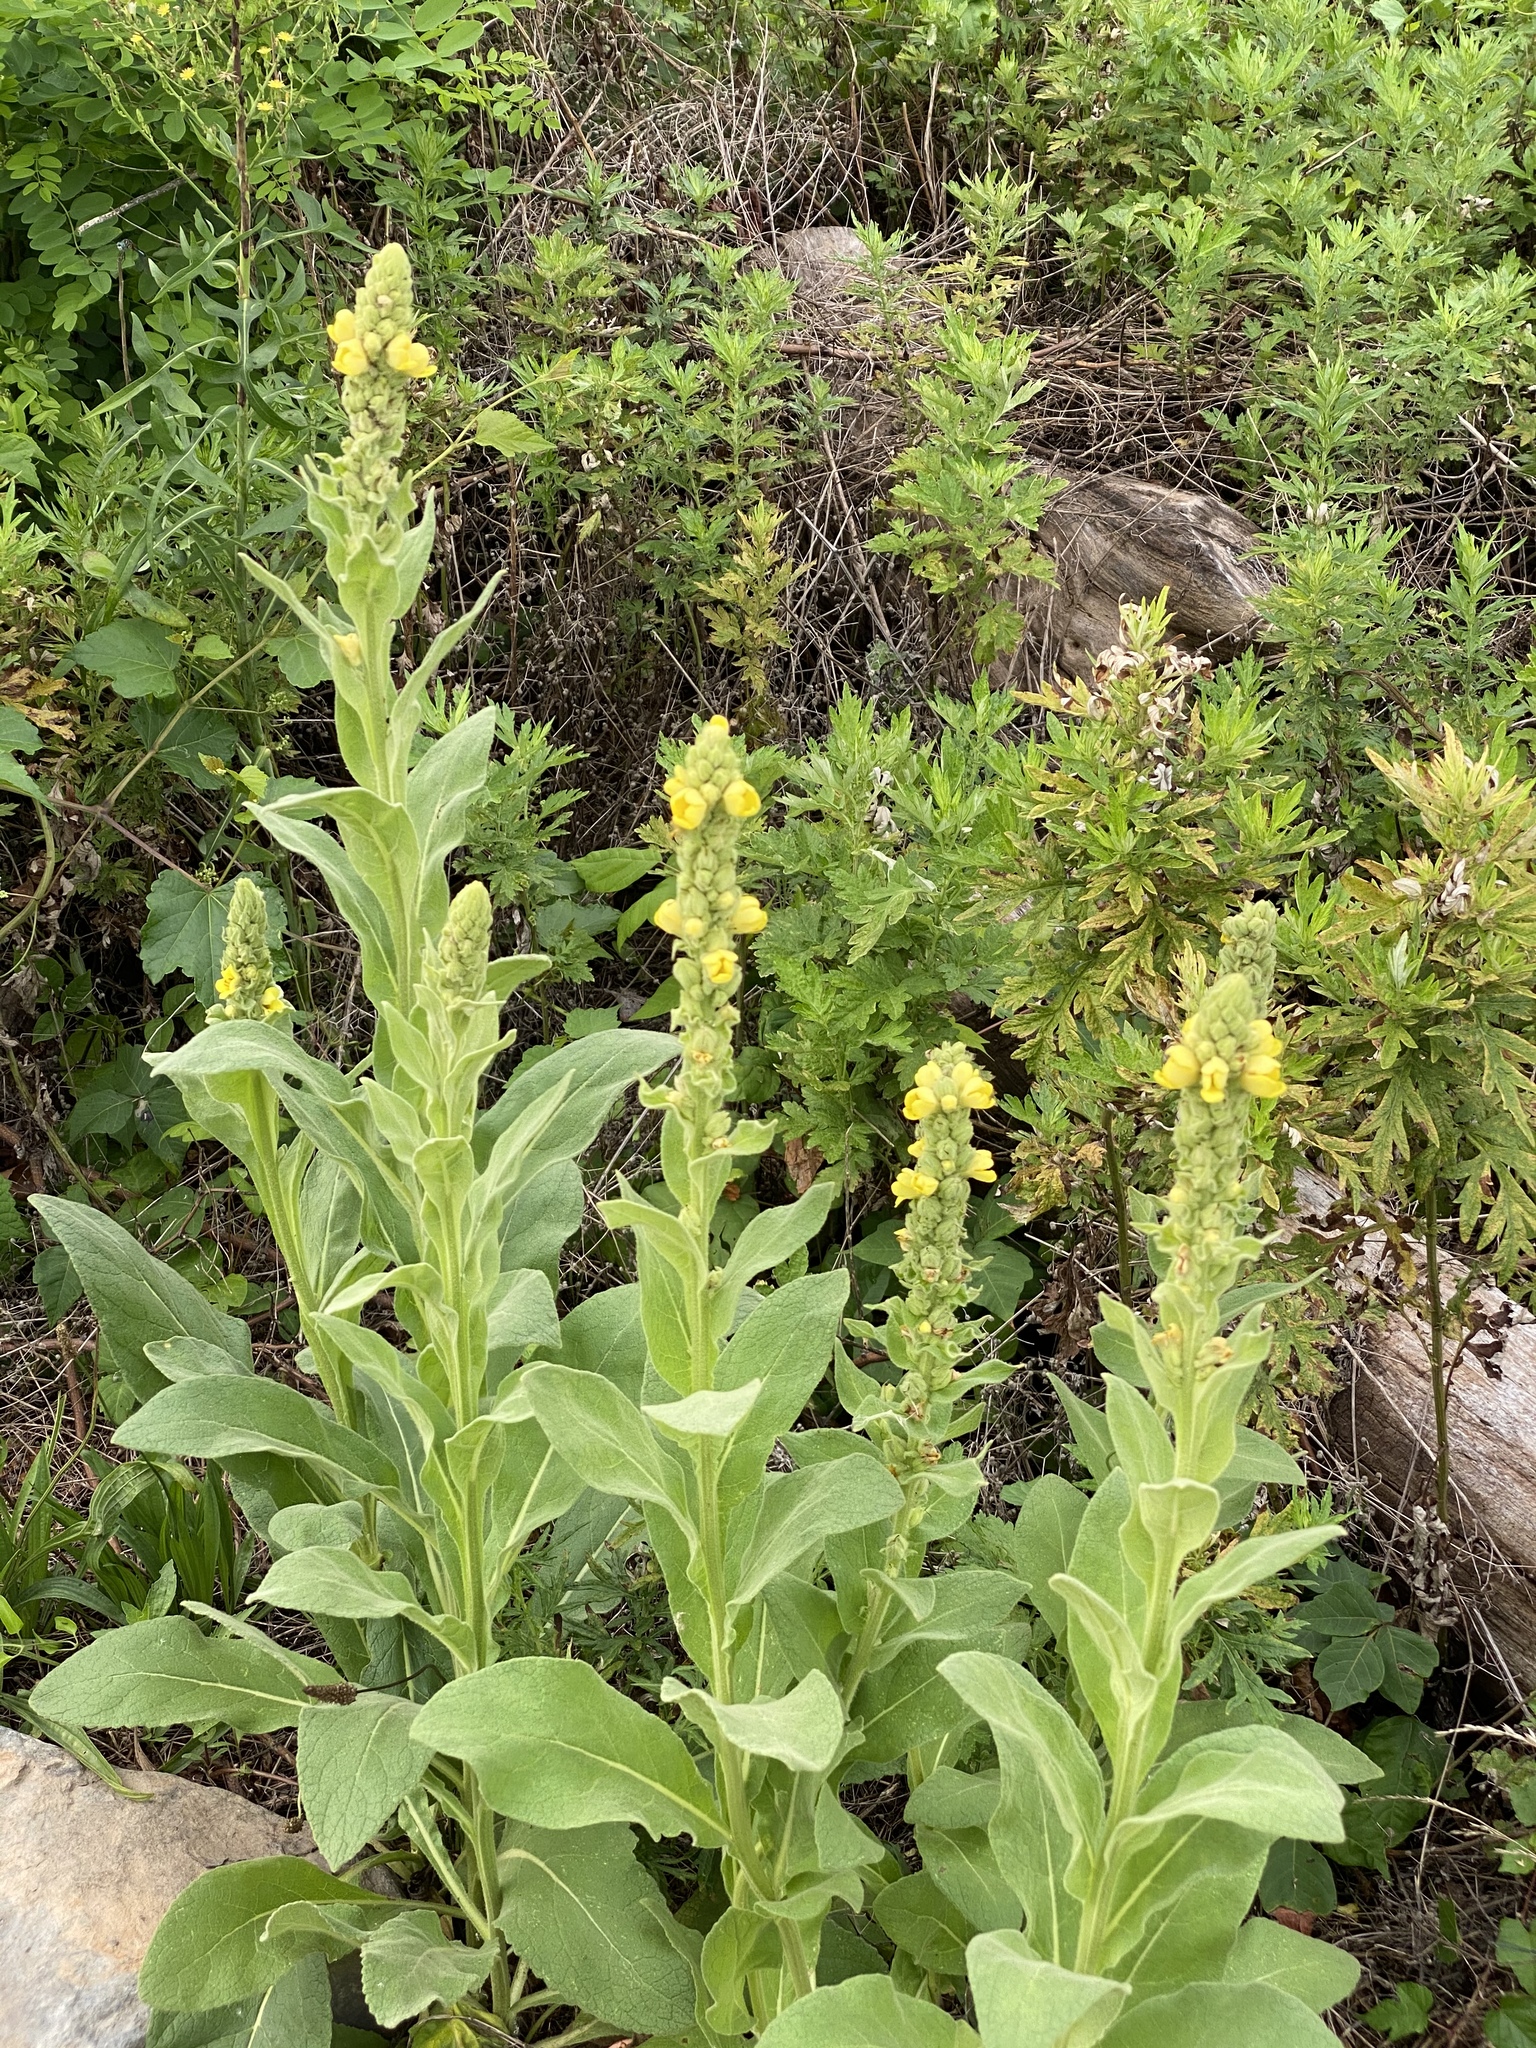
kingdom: Plantae
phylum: Tracheophyta
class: Magnoliopsida
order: Lamiales
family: Scrophulariaceae
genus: Verbascum
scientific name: Verbascum thapsus
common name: Common mullein
